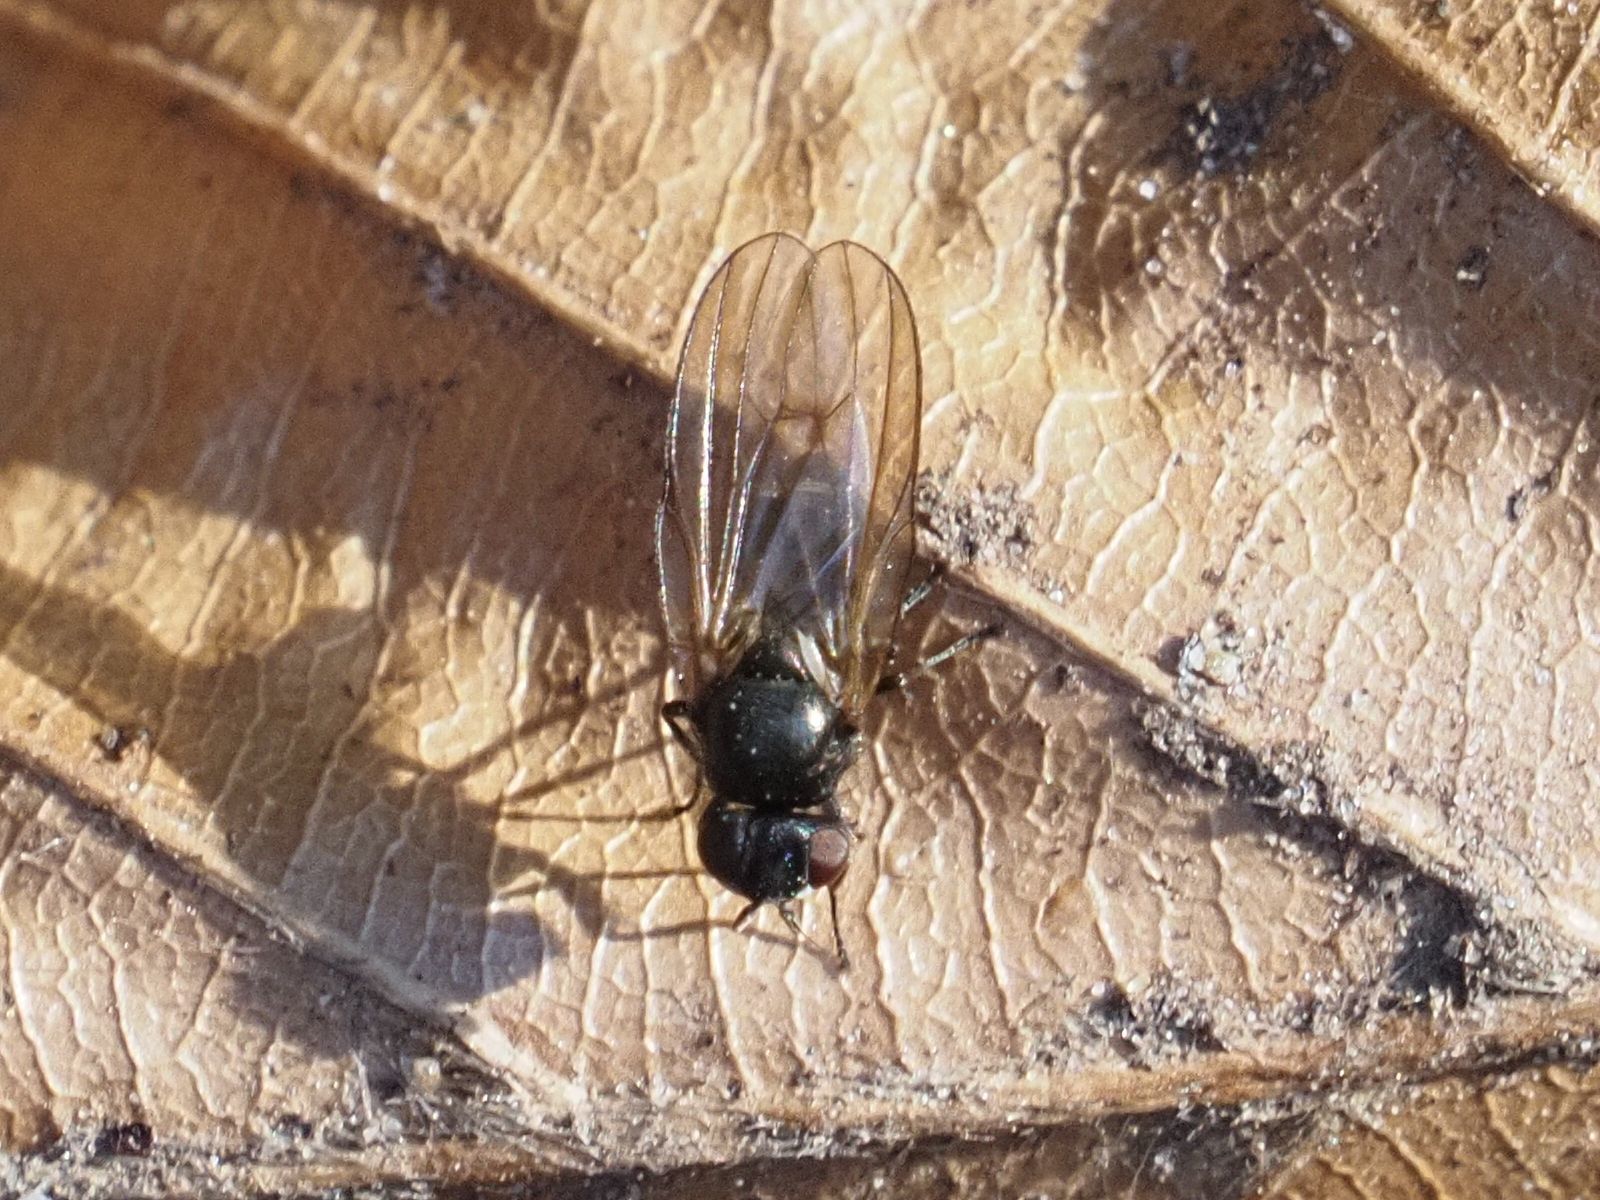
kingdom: Animalia
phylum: Arthropoda
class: Insecta
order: Diptera
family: Lonchaeidae
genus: Earomyia
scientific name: Earomyia lonchaeoides
